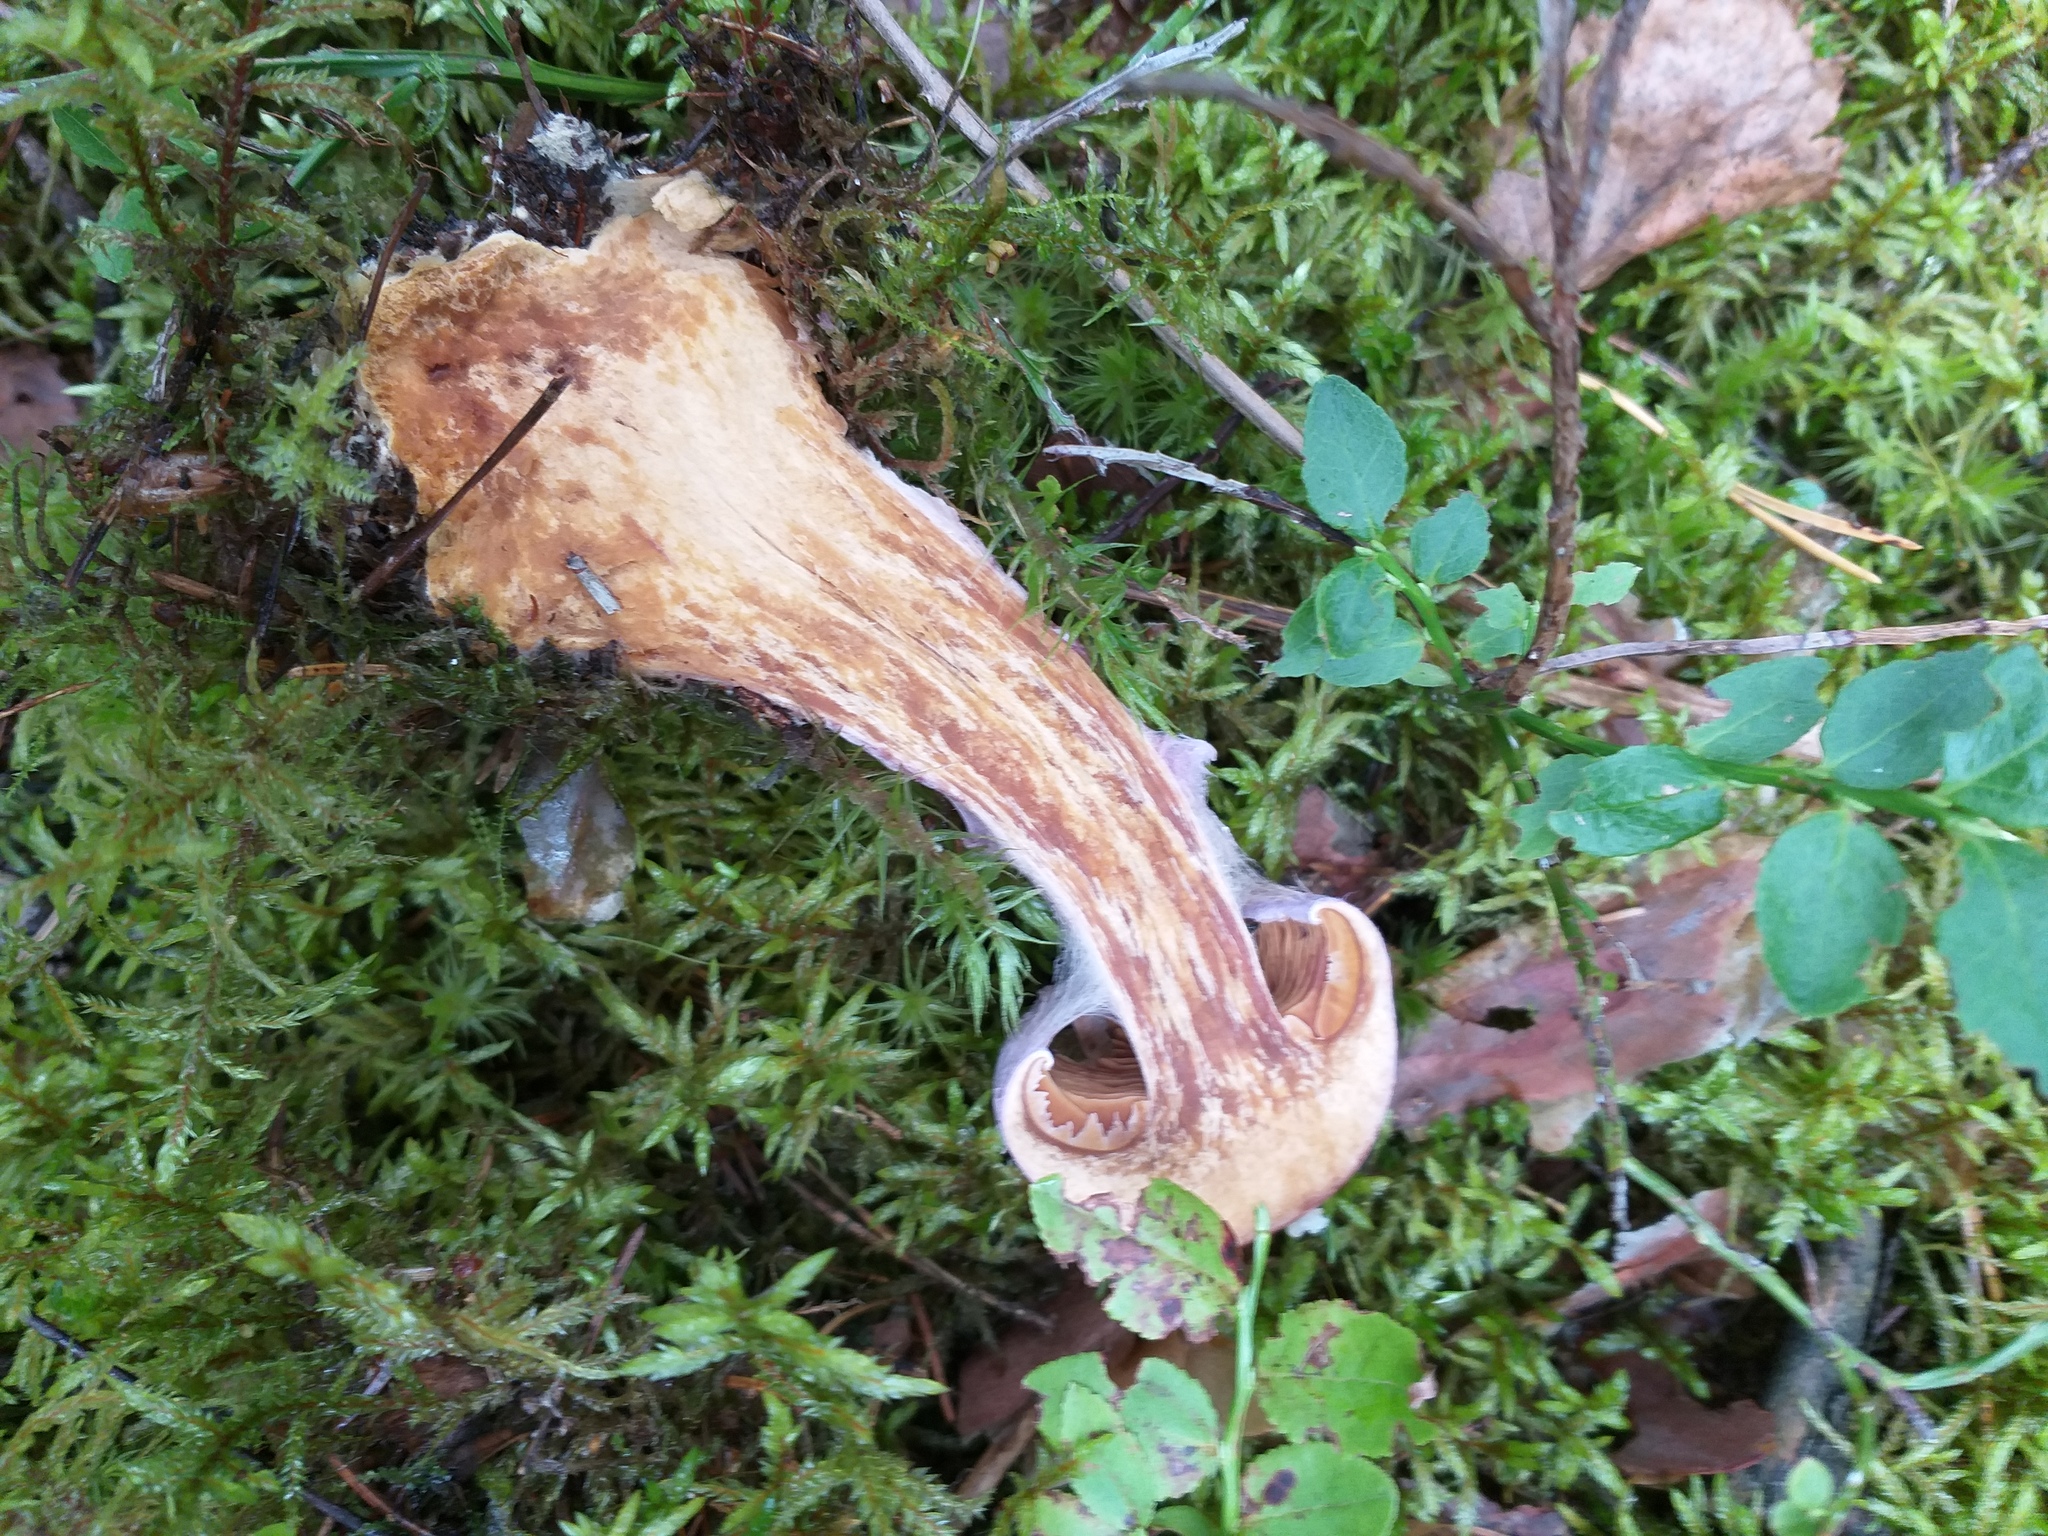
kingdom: Fungi
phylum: Basidiomycota
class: Agaricomycetes
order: Agaricales
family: Cortinariaceae
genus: Cortinarius
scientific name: Cortinarius traganus
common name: Gassy webcap
